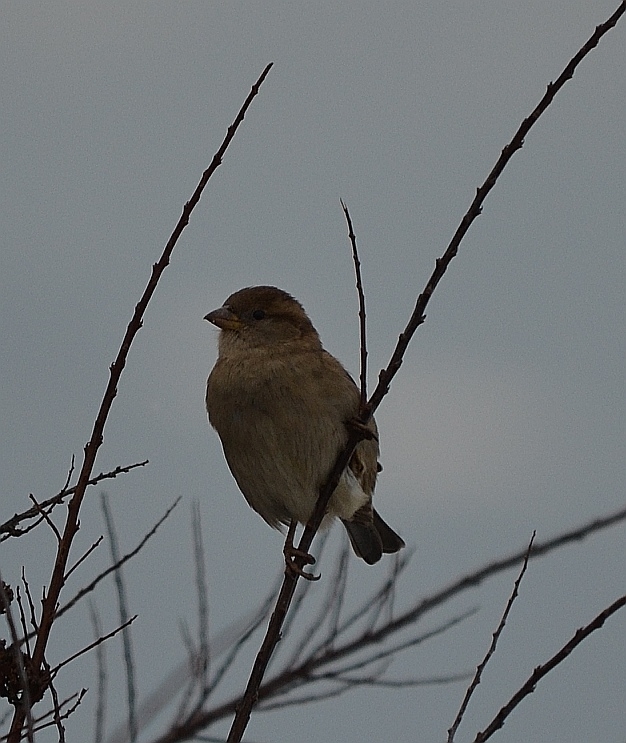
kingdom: Animalia
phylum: Chordata
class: Aves
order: Passeriformes
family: Passeridae
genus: Passer
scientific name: Passer domesticus
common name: House sparrow
